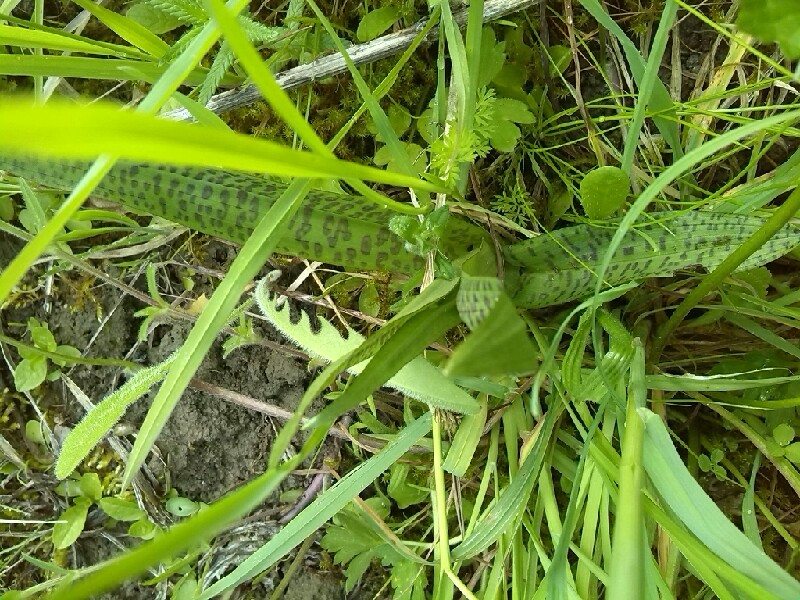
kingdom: Plantae
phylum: Tracheophyta
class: Liliopsida
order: Asparagales
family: Orchidaceae
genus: Dactylorhiza
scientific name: Dactylorhiza majalis
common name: Marsh orchid
